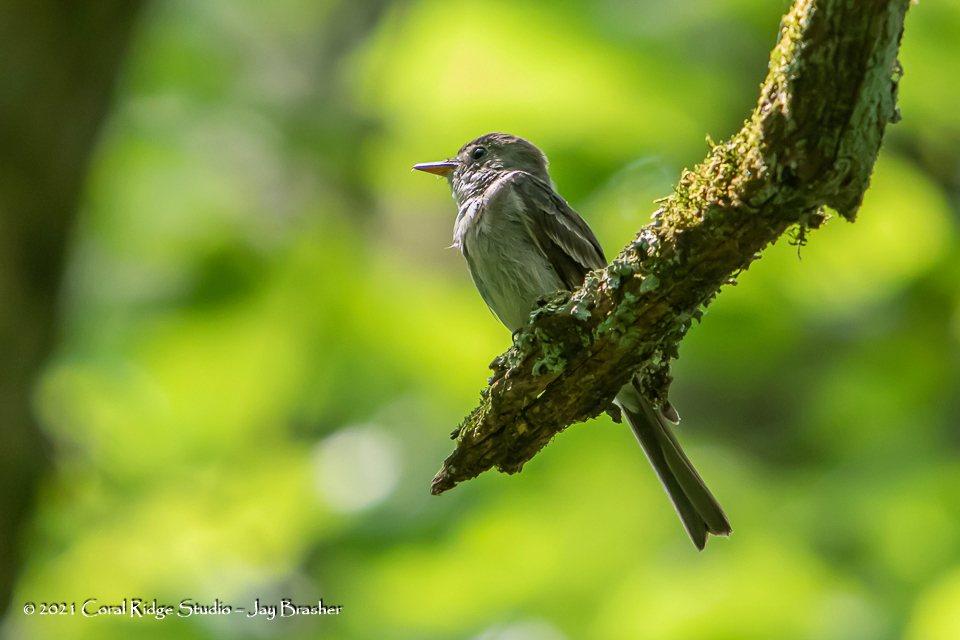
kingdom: Animalia
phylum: Chordata
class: Aves
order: Passeriformes
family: Tyrannidae
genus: Contopus
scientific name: Contopus virens
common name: Eastern wood-pewee
